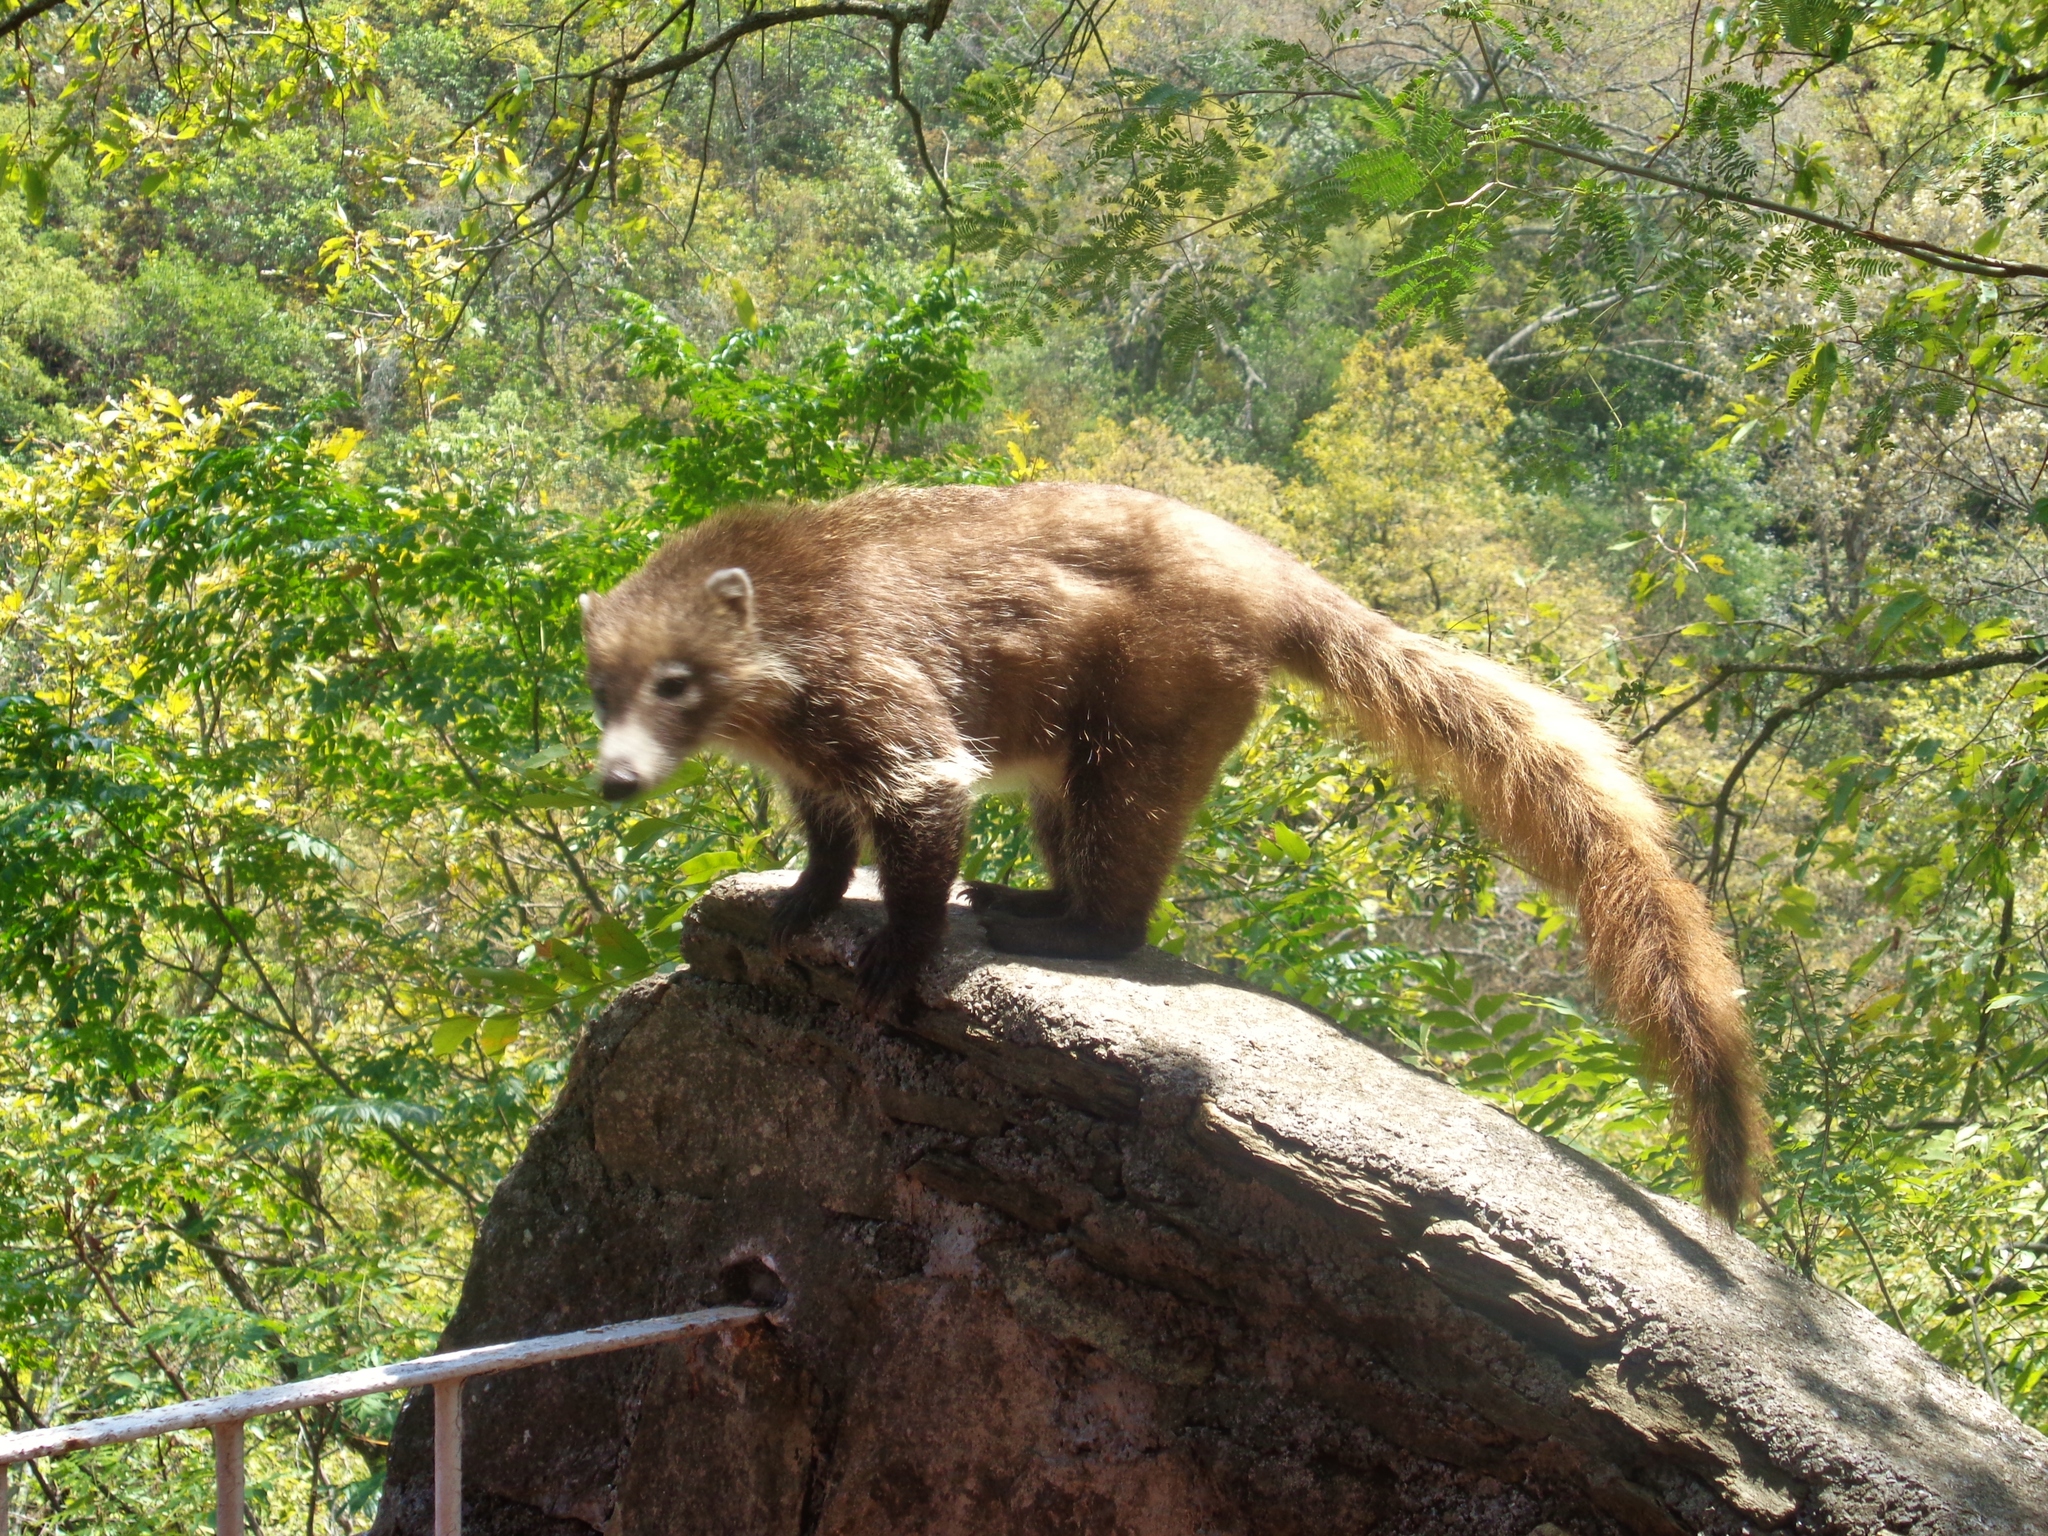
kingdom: Animalia
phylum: Chordata
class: Mammalia
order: Carnivora
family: Procyonidae
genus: Nasua
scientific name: Nasua narica
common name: White-nosed coati
